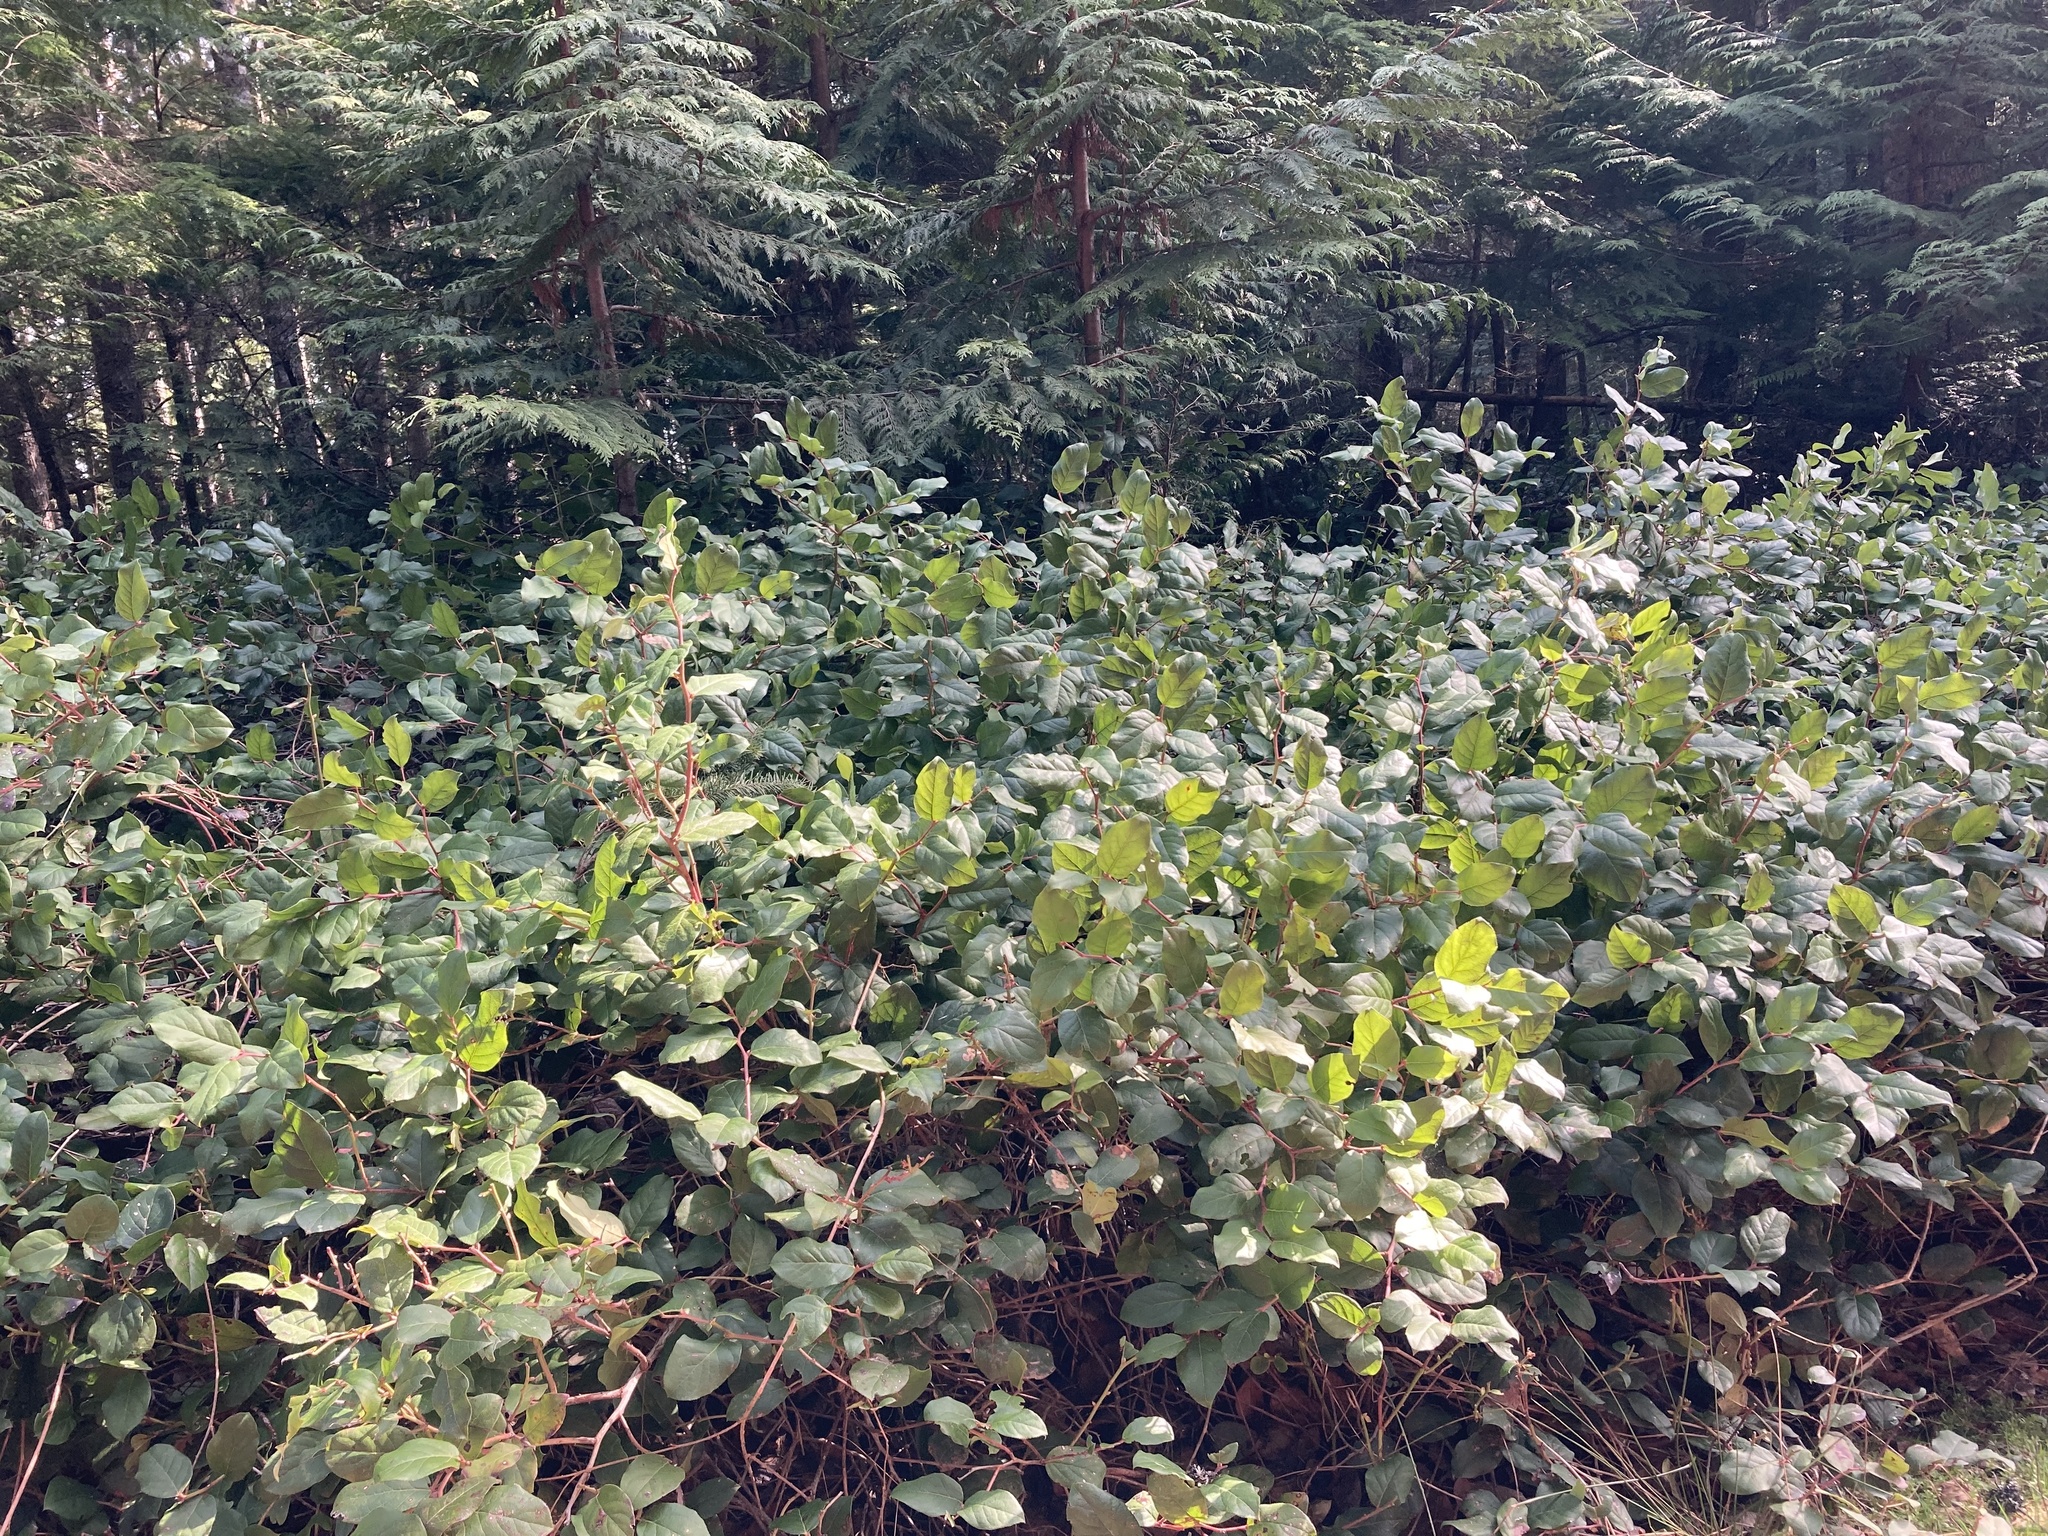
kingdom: Plantae
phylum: Tracheophyta
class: Magnoliopsida
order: Ericales
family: Ericaceae
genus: Gaultheria
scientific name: Gaultheria shallon
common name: Shallon
